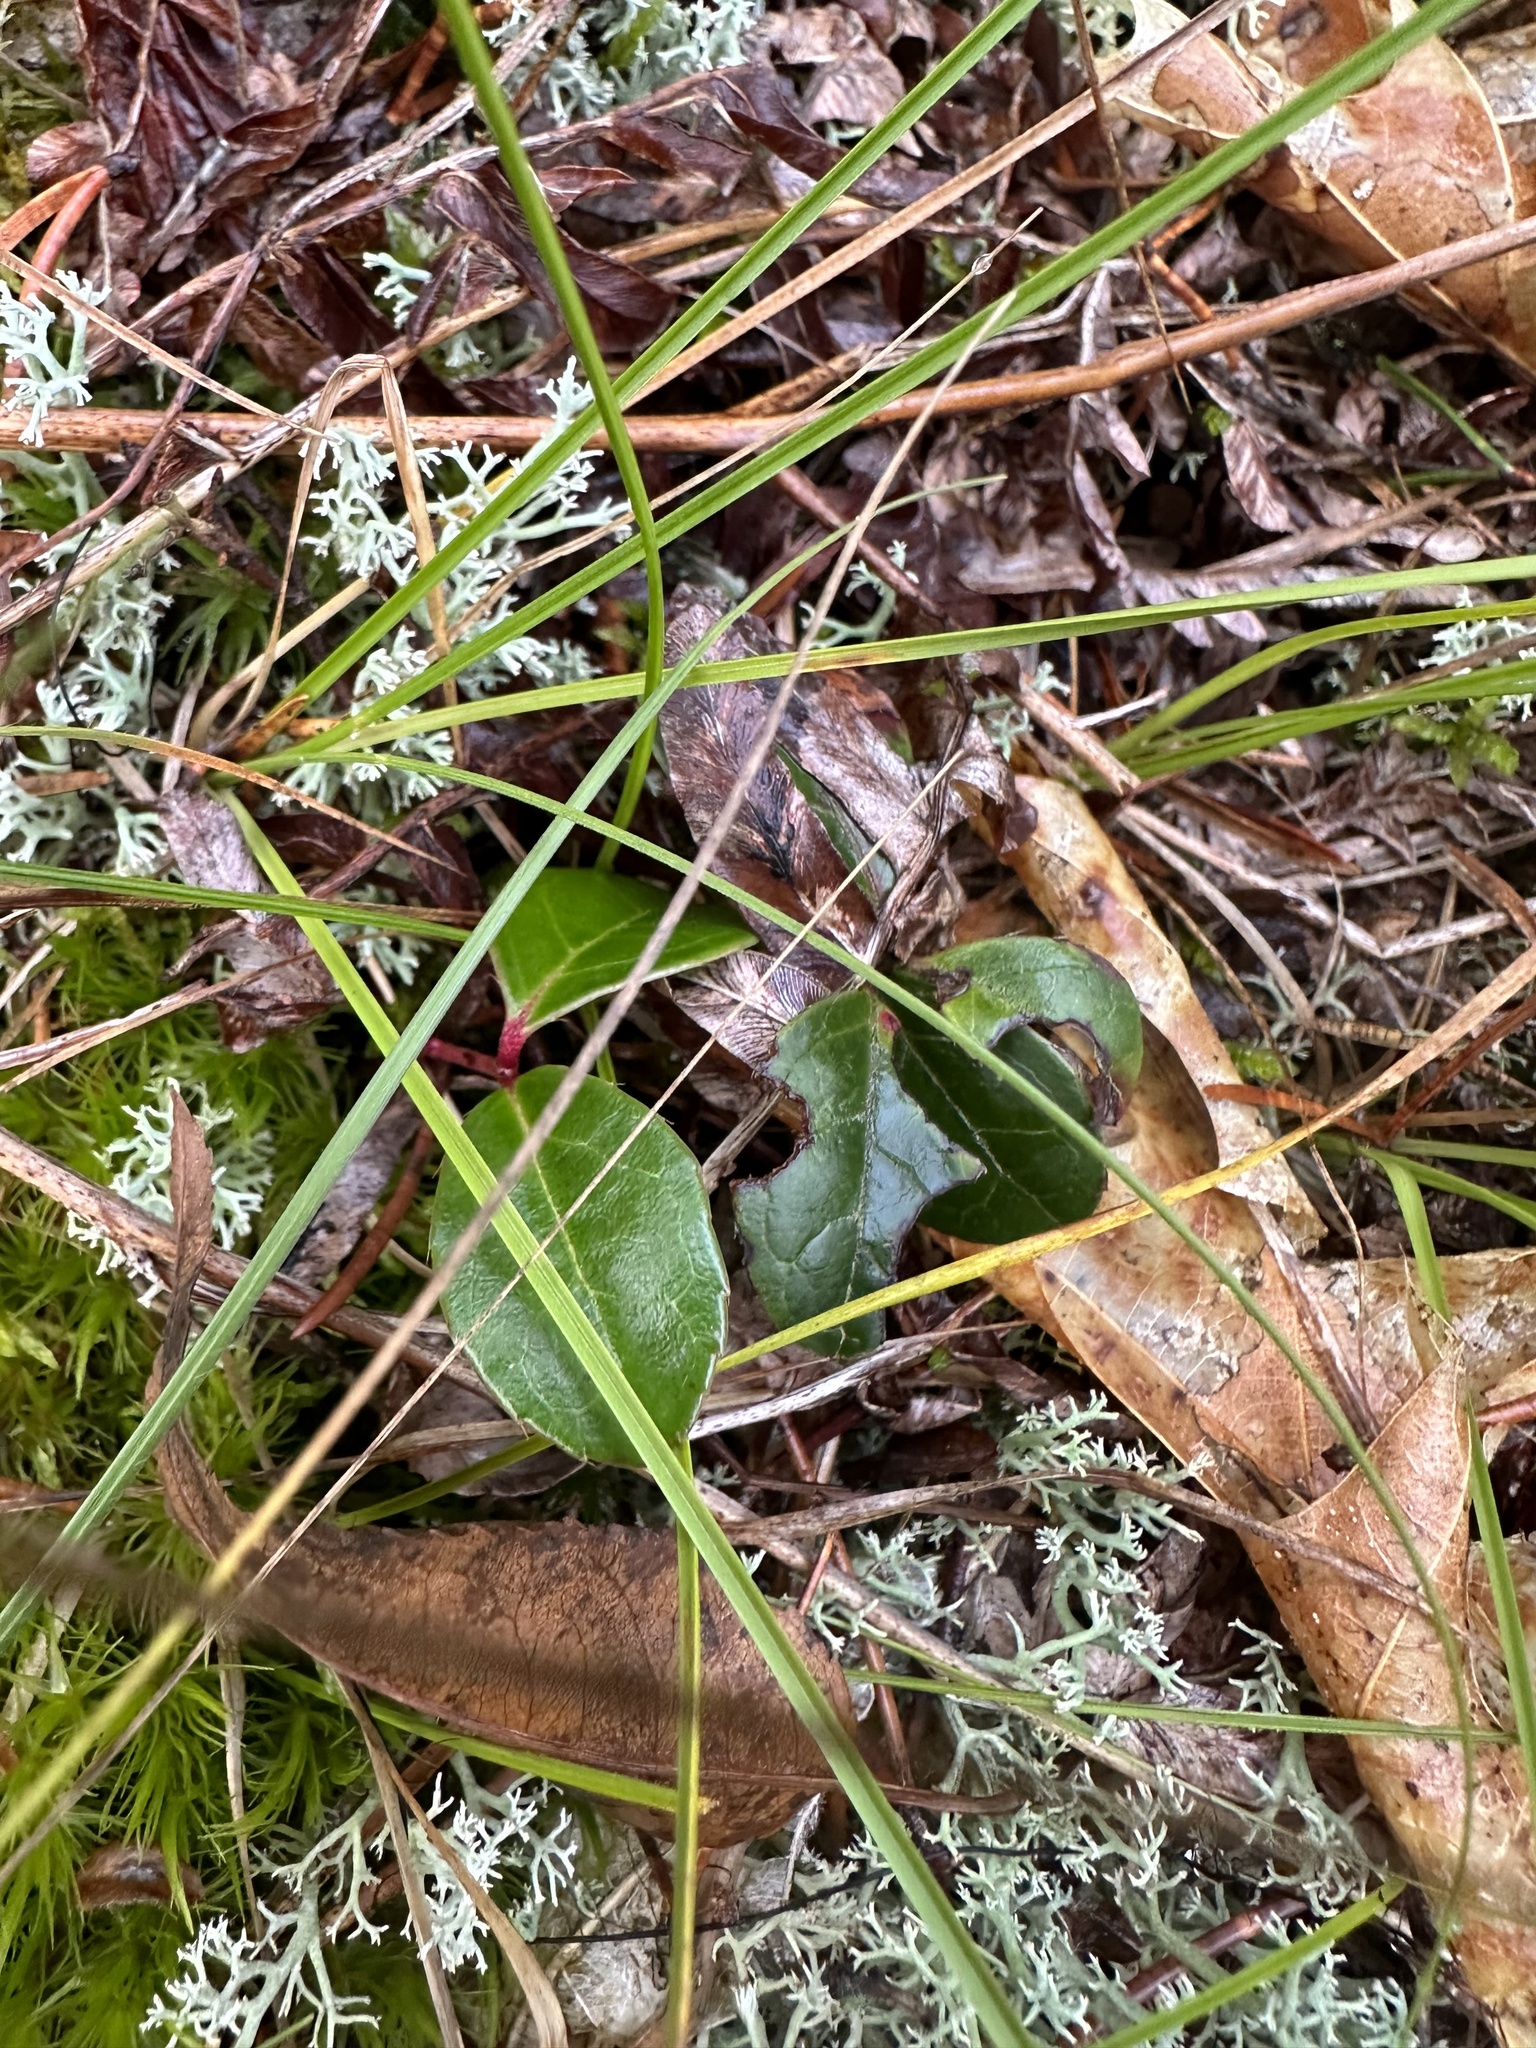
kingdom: Plantae
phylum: Tracheophyta
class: Magnoliopsida
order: Ericales
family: Ericaceae
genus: Gaultheria
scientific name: Gaultheria procumbens
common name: Checkerberry
